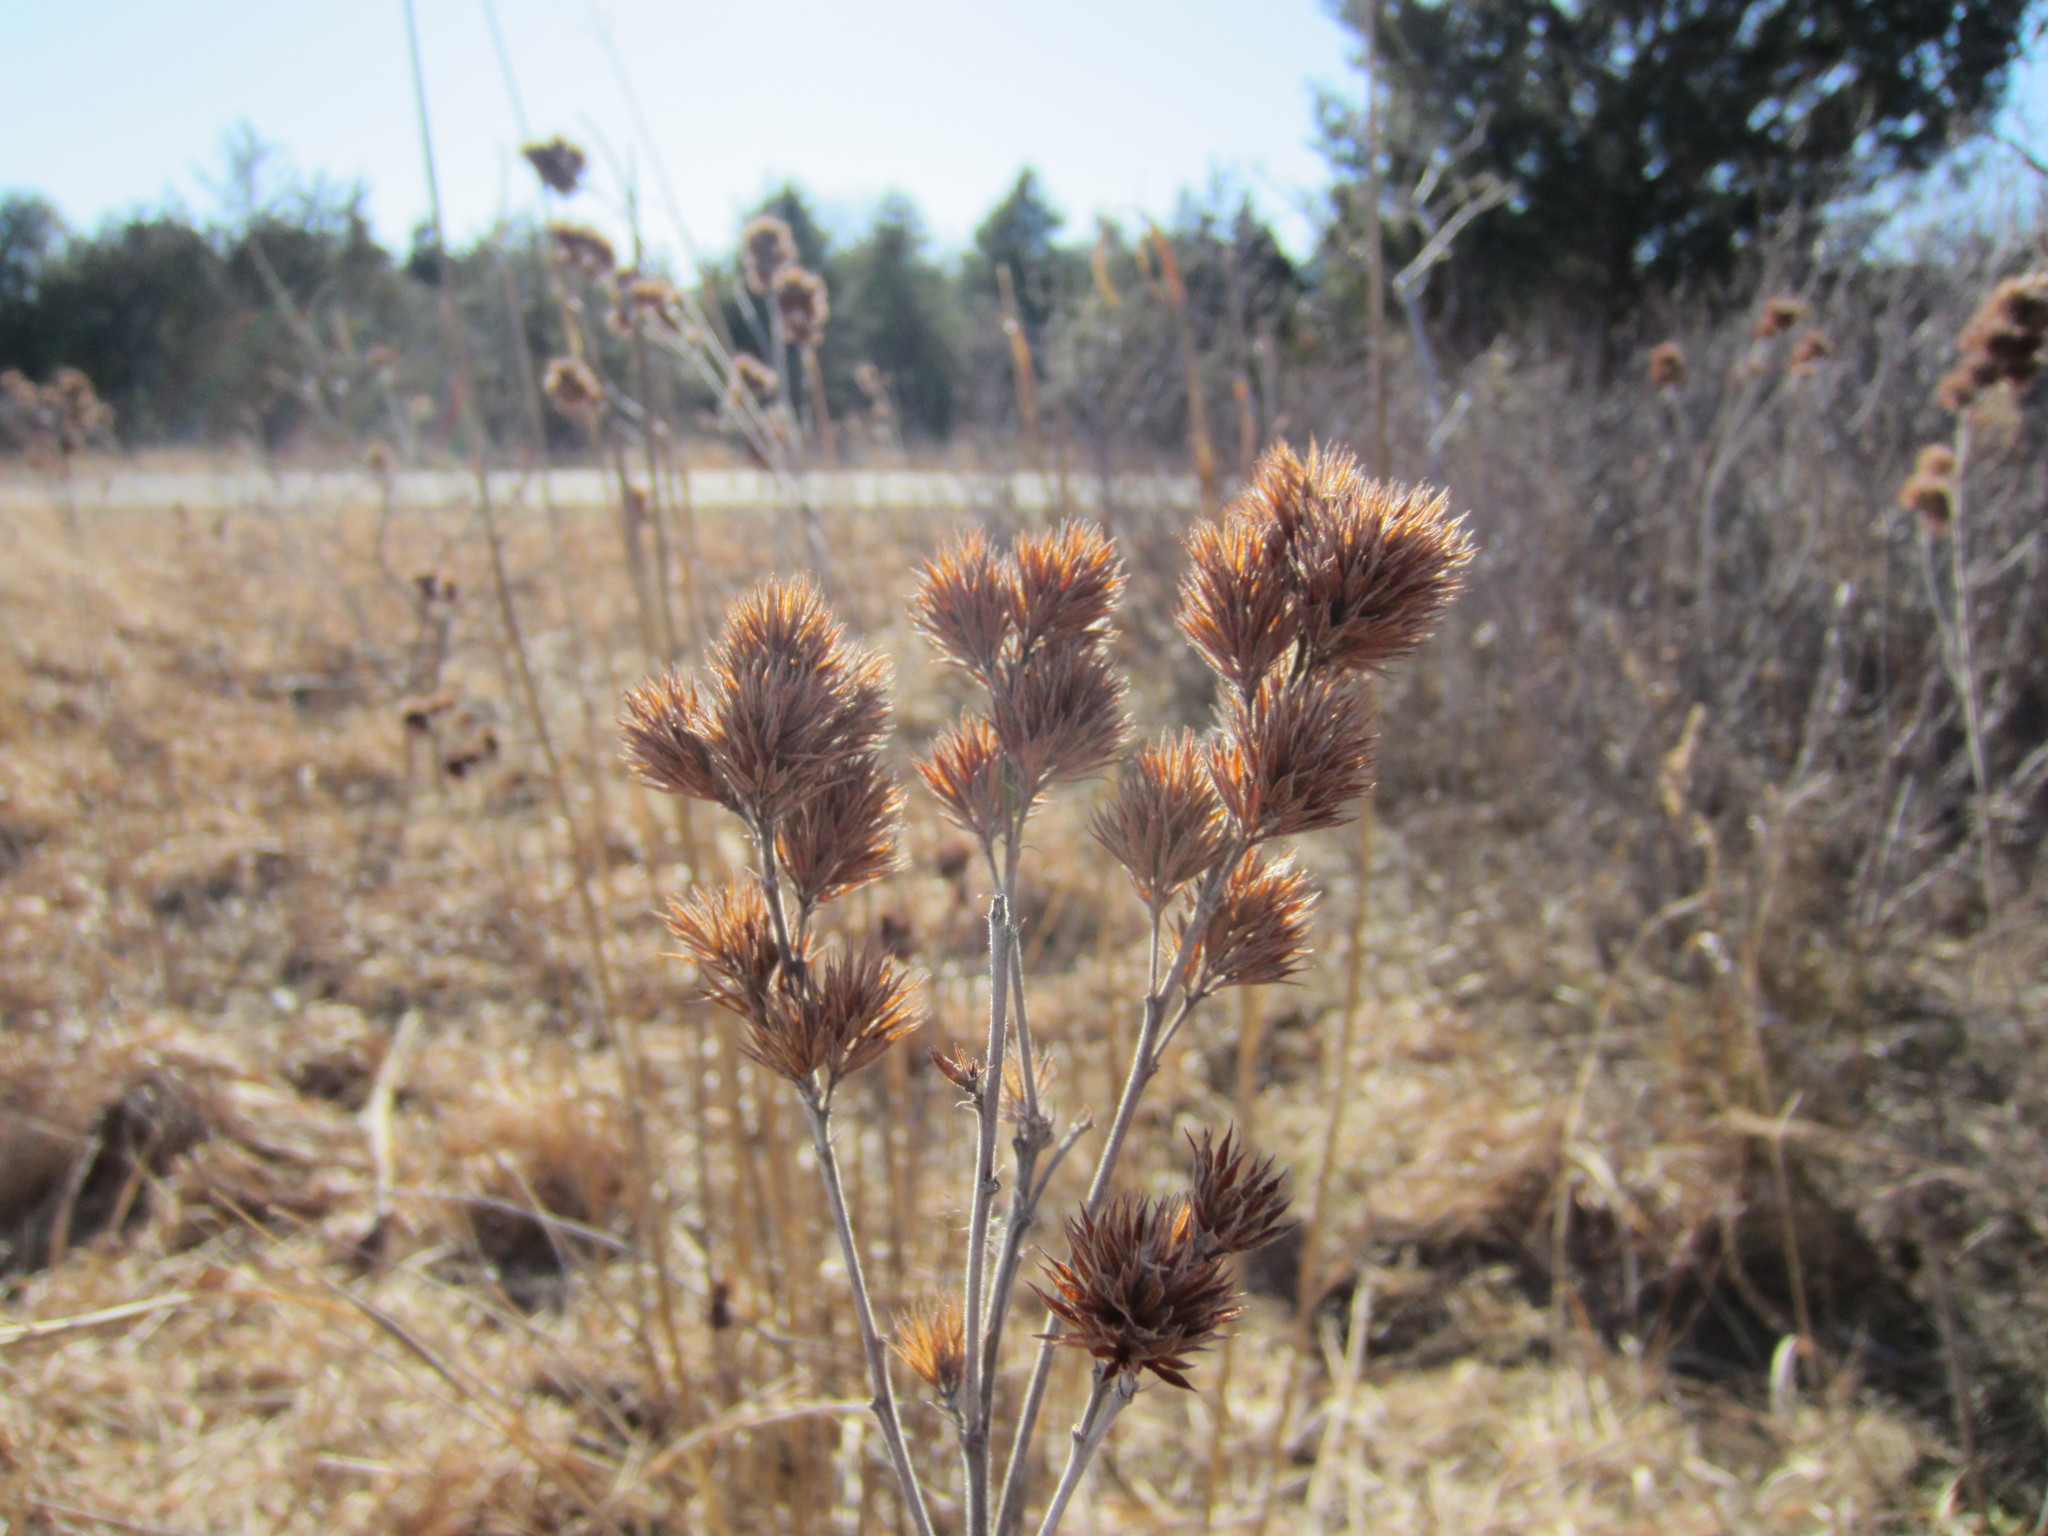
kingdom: Plantae
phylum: Tracheophyta
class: Magnoliopsida
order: Fabales
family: Fabaceae
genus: Lespedeza
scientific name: Lespedeza capitata
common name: Dusty clover
